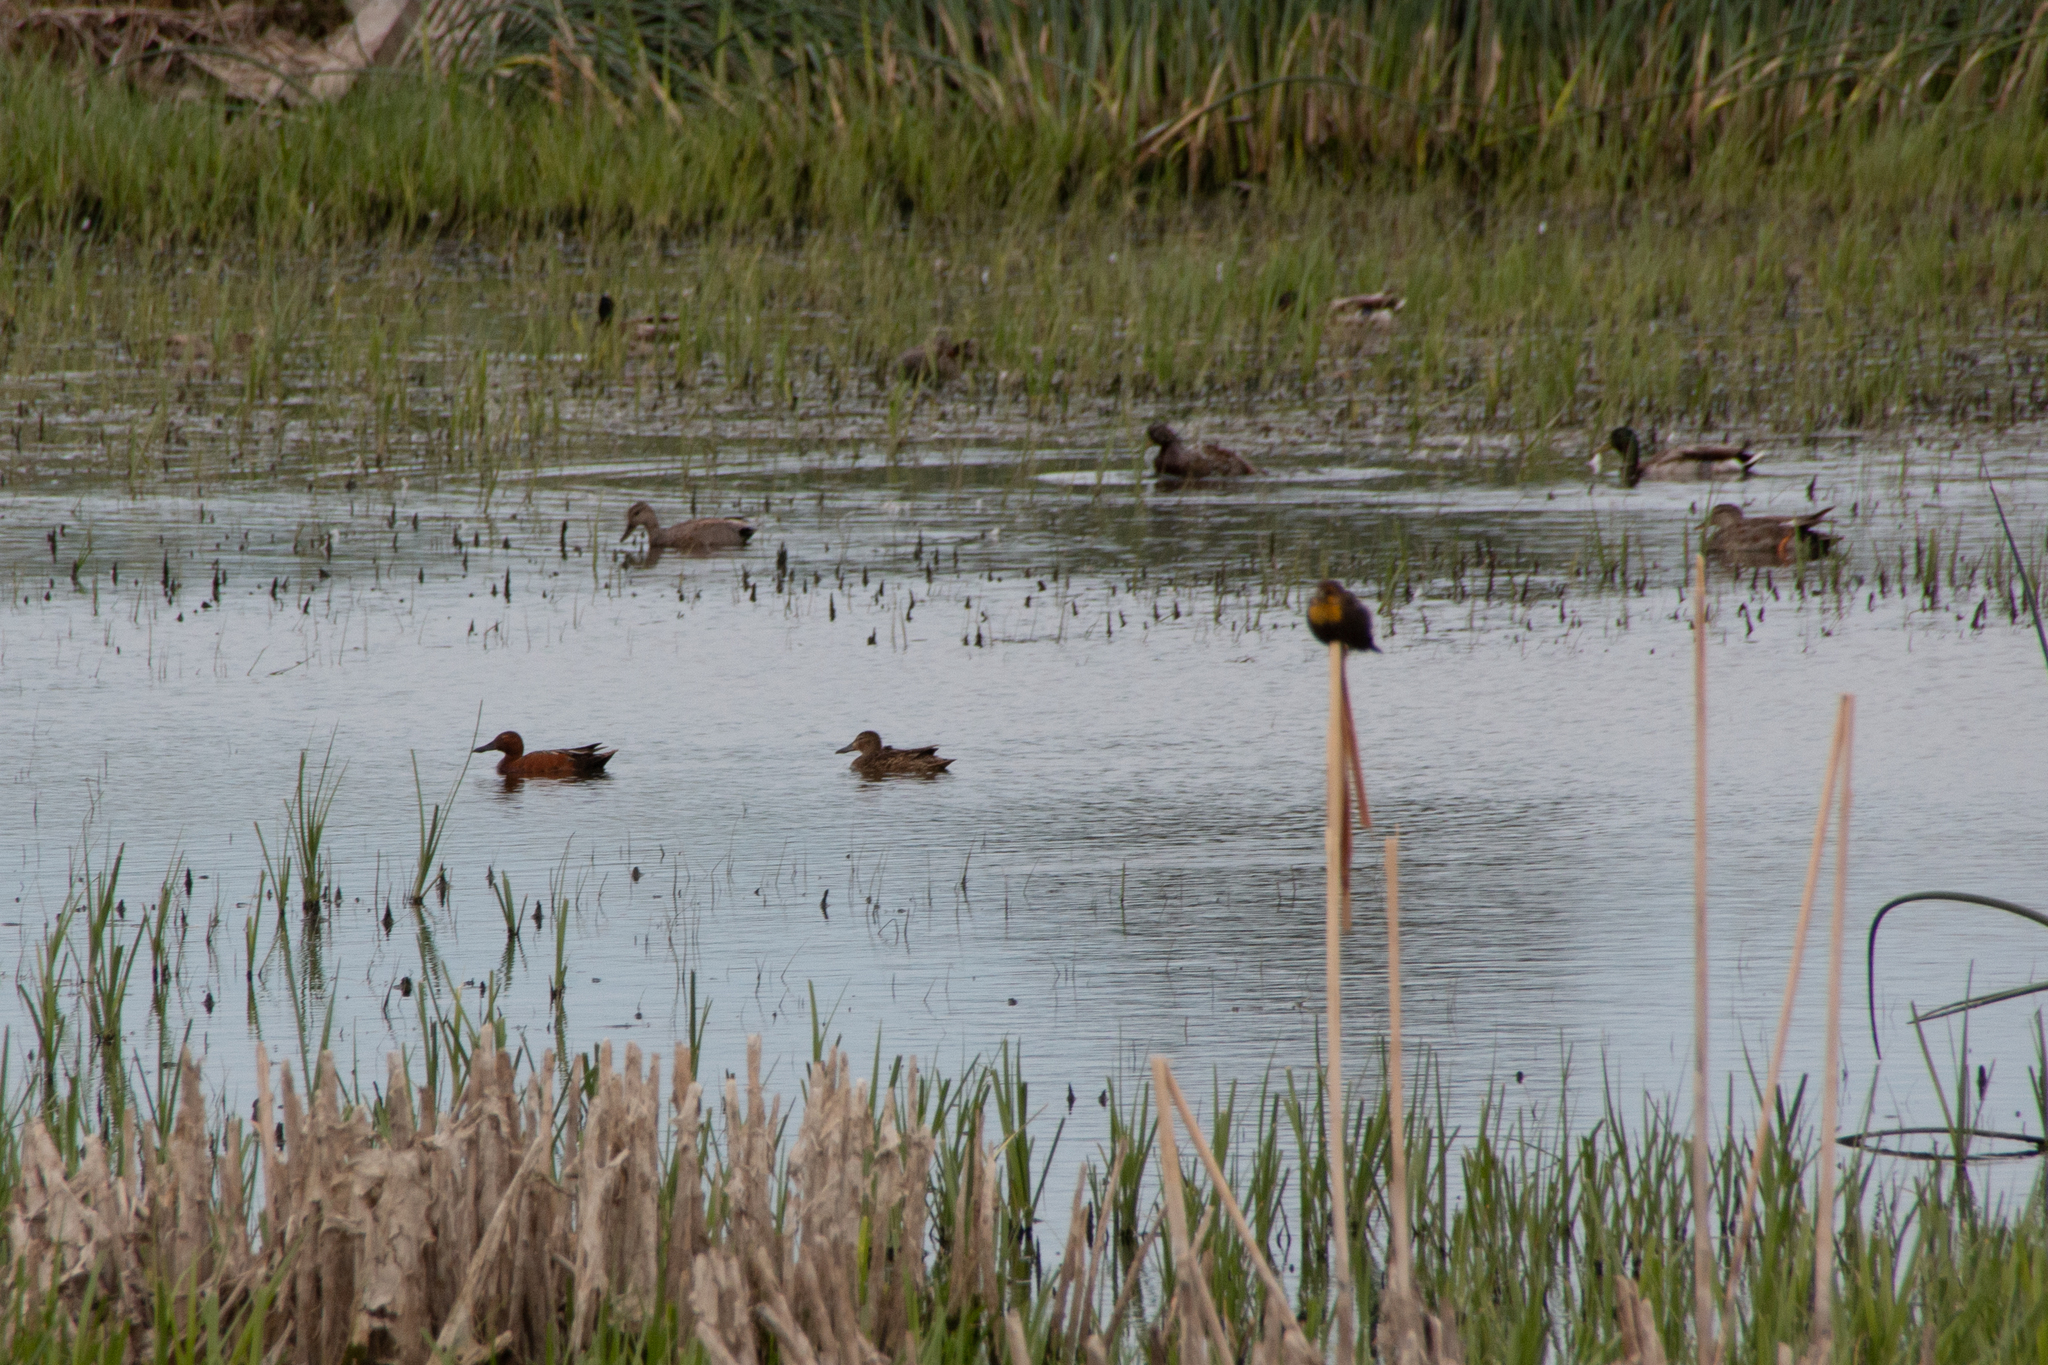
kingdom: Animalia
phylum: Chordata
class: Aves
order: Anseriformes
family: Anatidae
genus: Spatula
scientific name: Spatula cyanoptera
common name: Cinnamon teal
